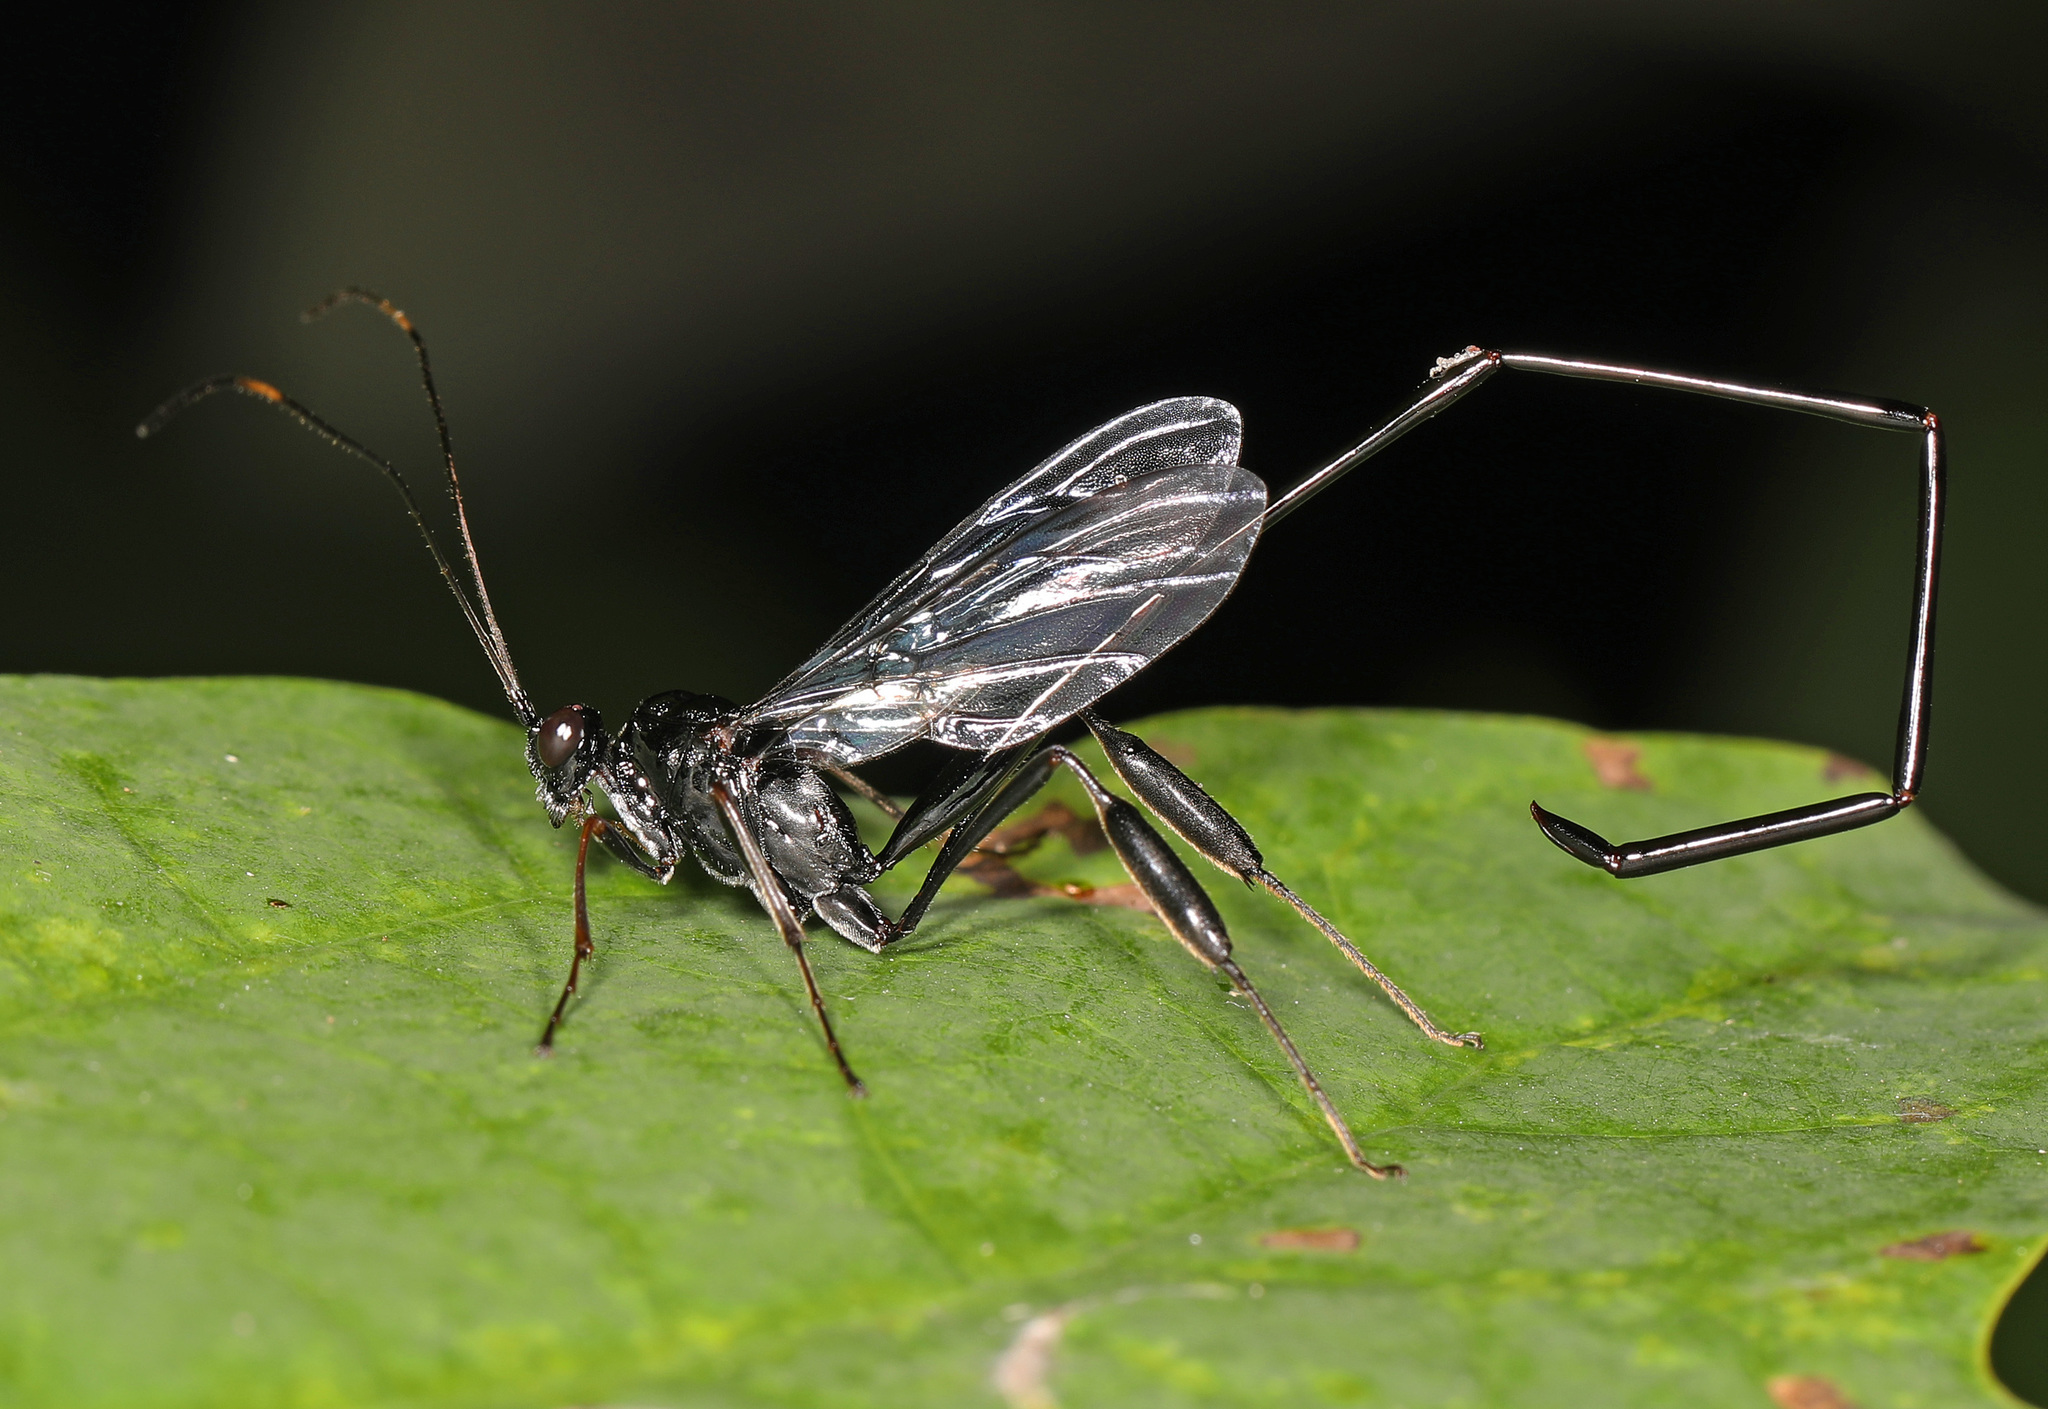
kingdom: Animalia
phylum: Arthropoda
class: Insecta
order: Hymenoptera
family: Pelecinidae
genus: Pelecinus
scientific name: Pelecinus polyturator
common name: American pelecinid wasp
